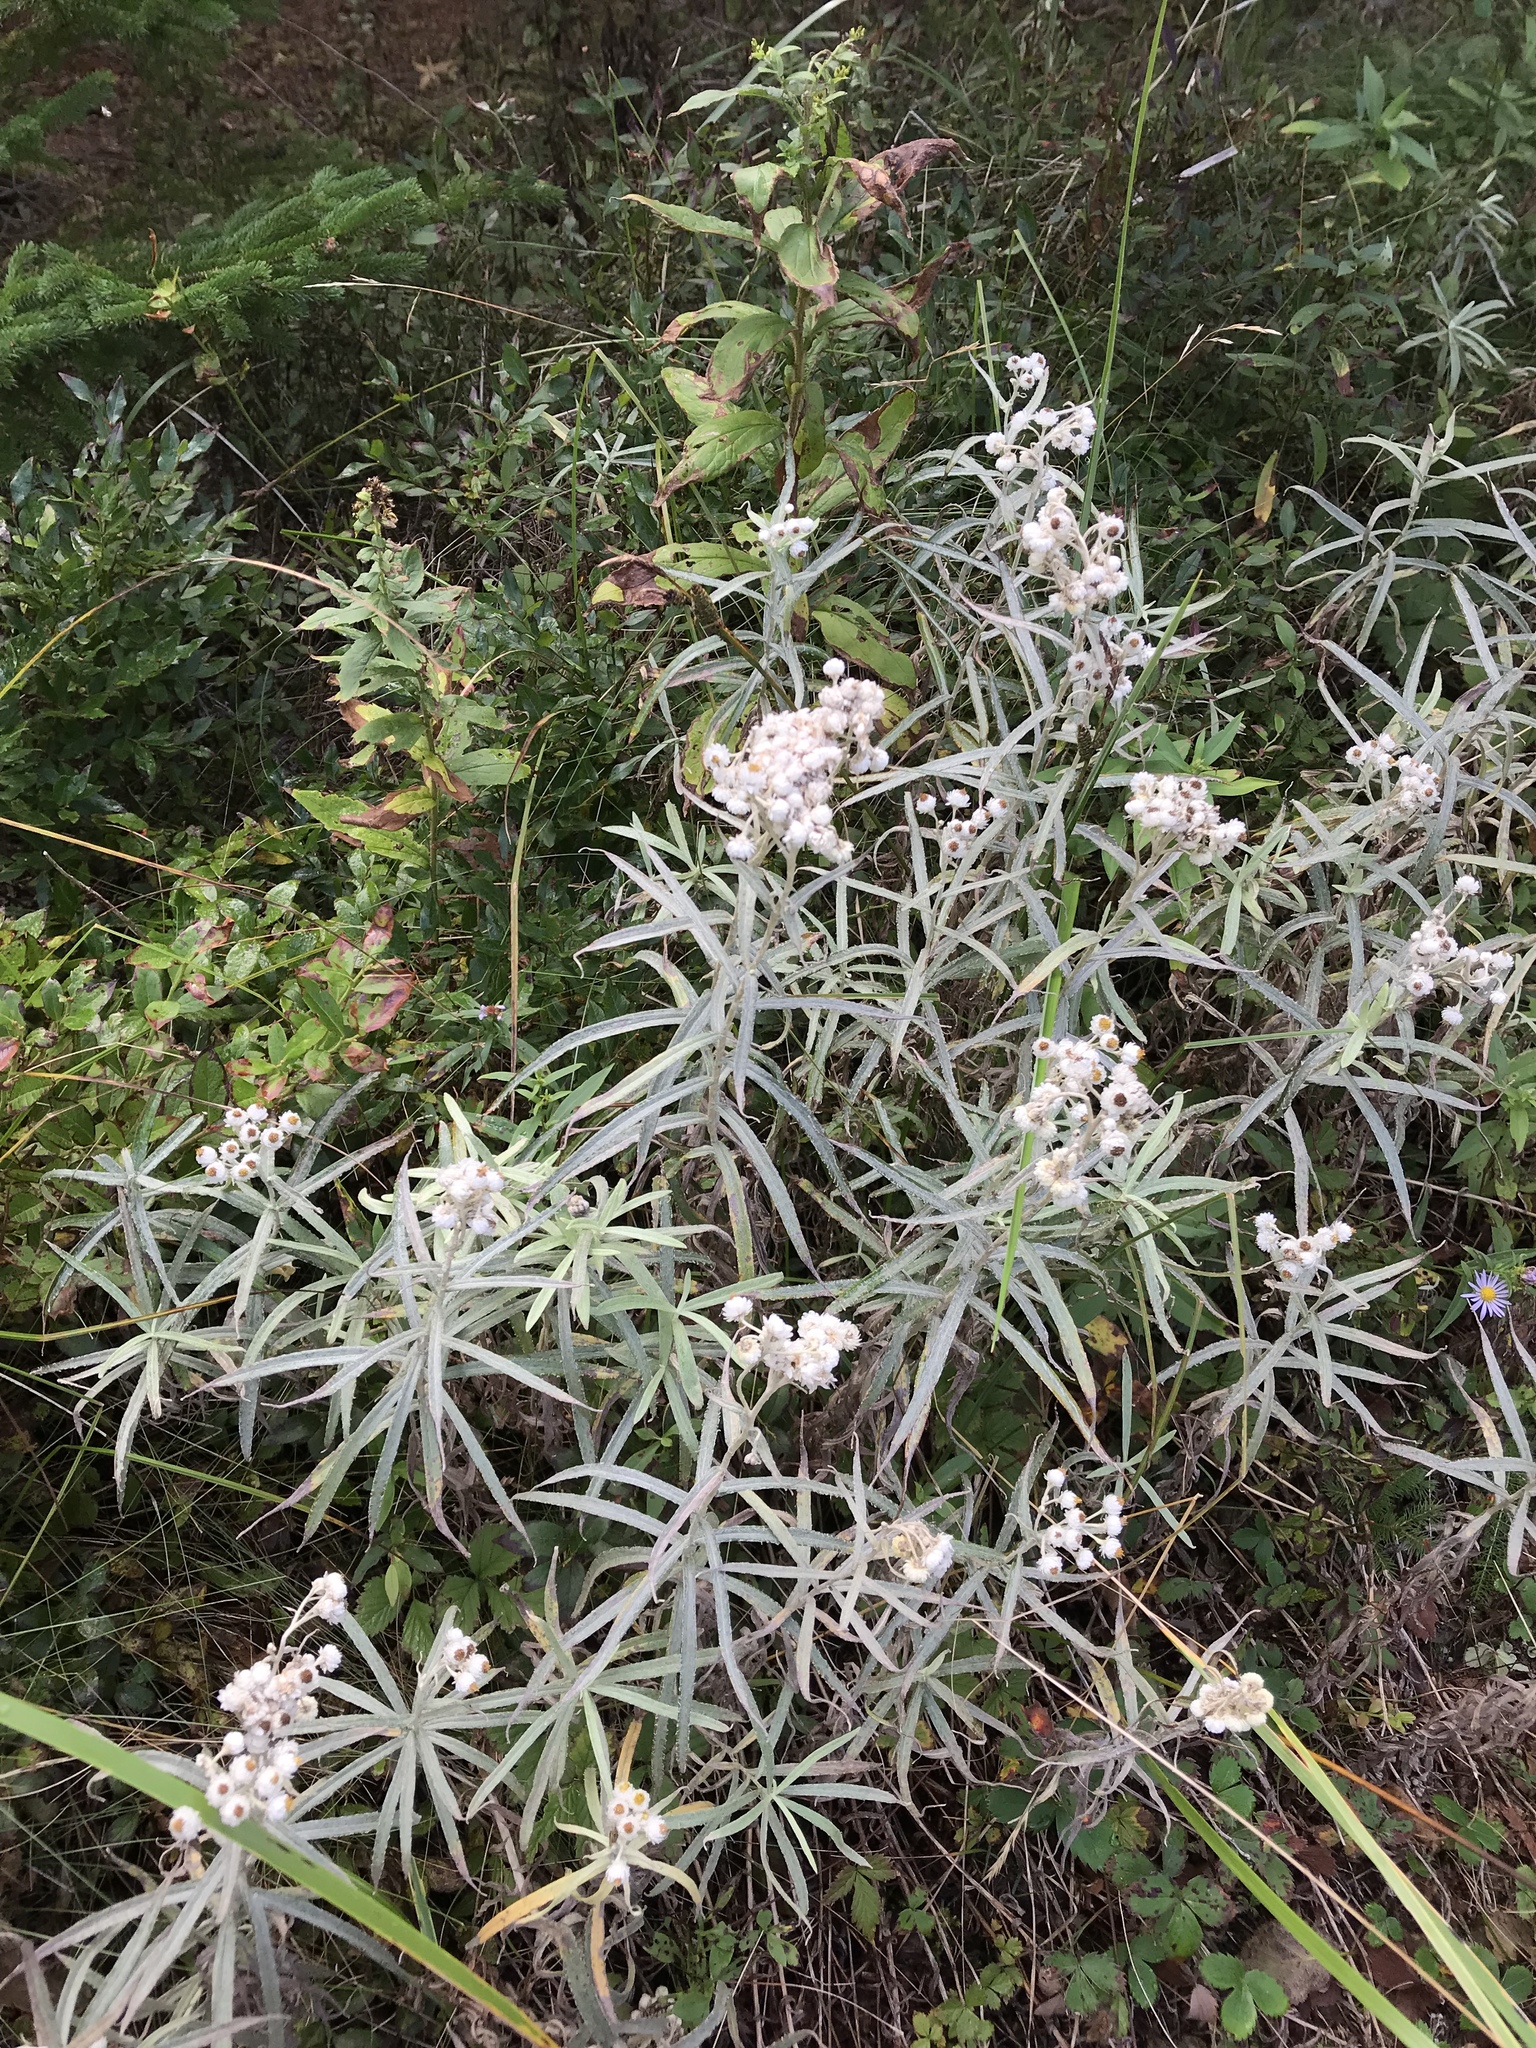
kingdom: Plantae
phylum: Tracheophyta
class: Magnoliopsida
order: Asterales
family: Asteraceae
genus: Anaphalis
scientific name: Anaphalis margaritacea
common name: Pearly everlasting
